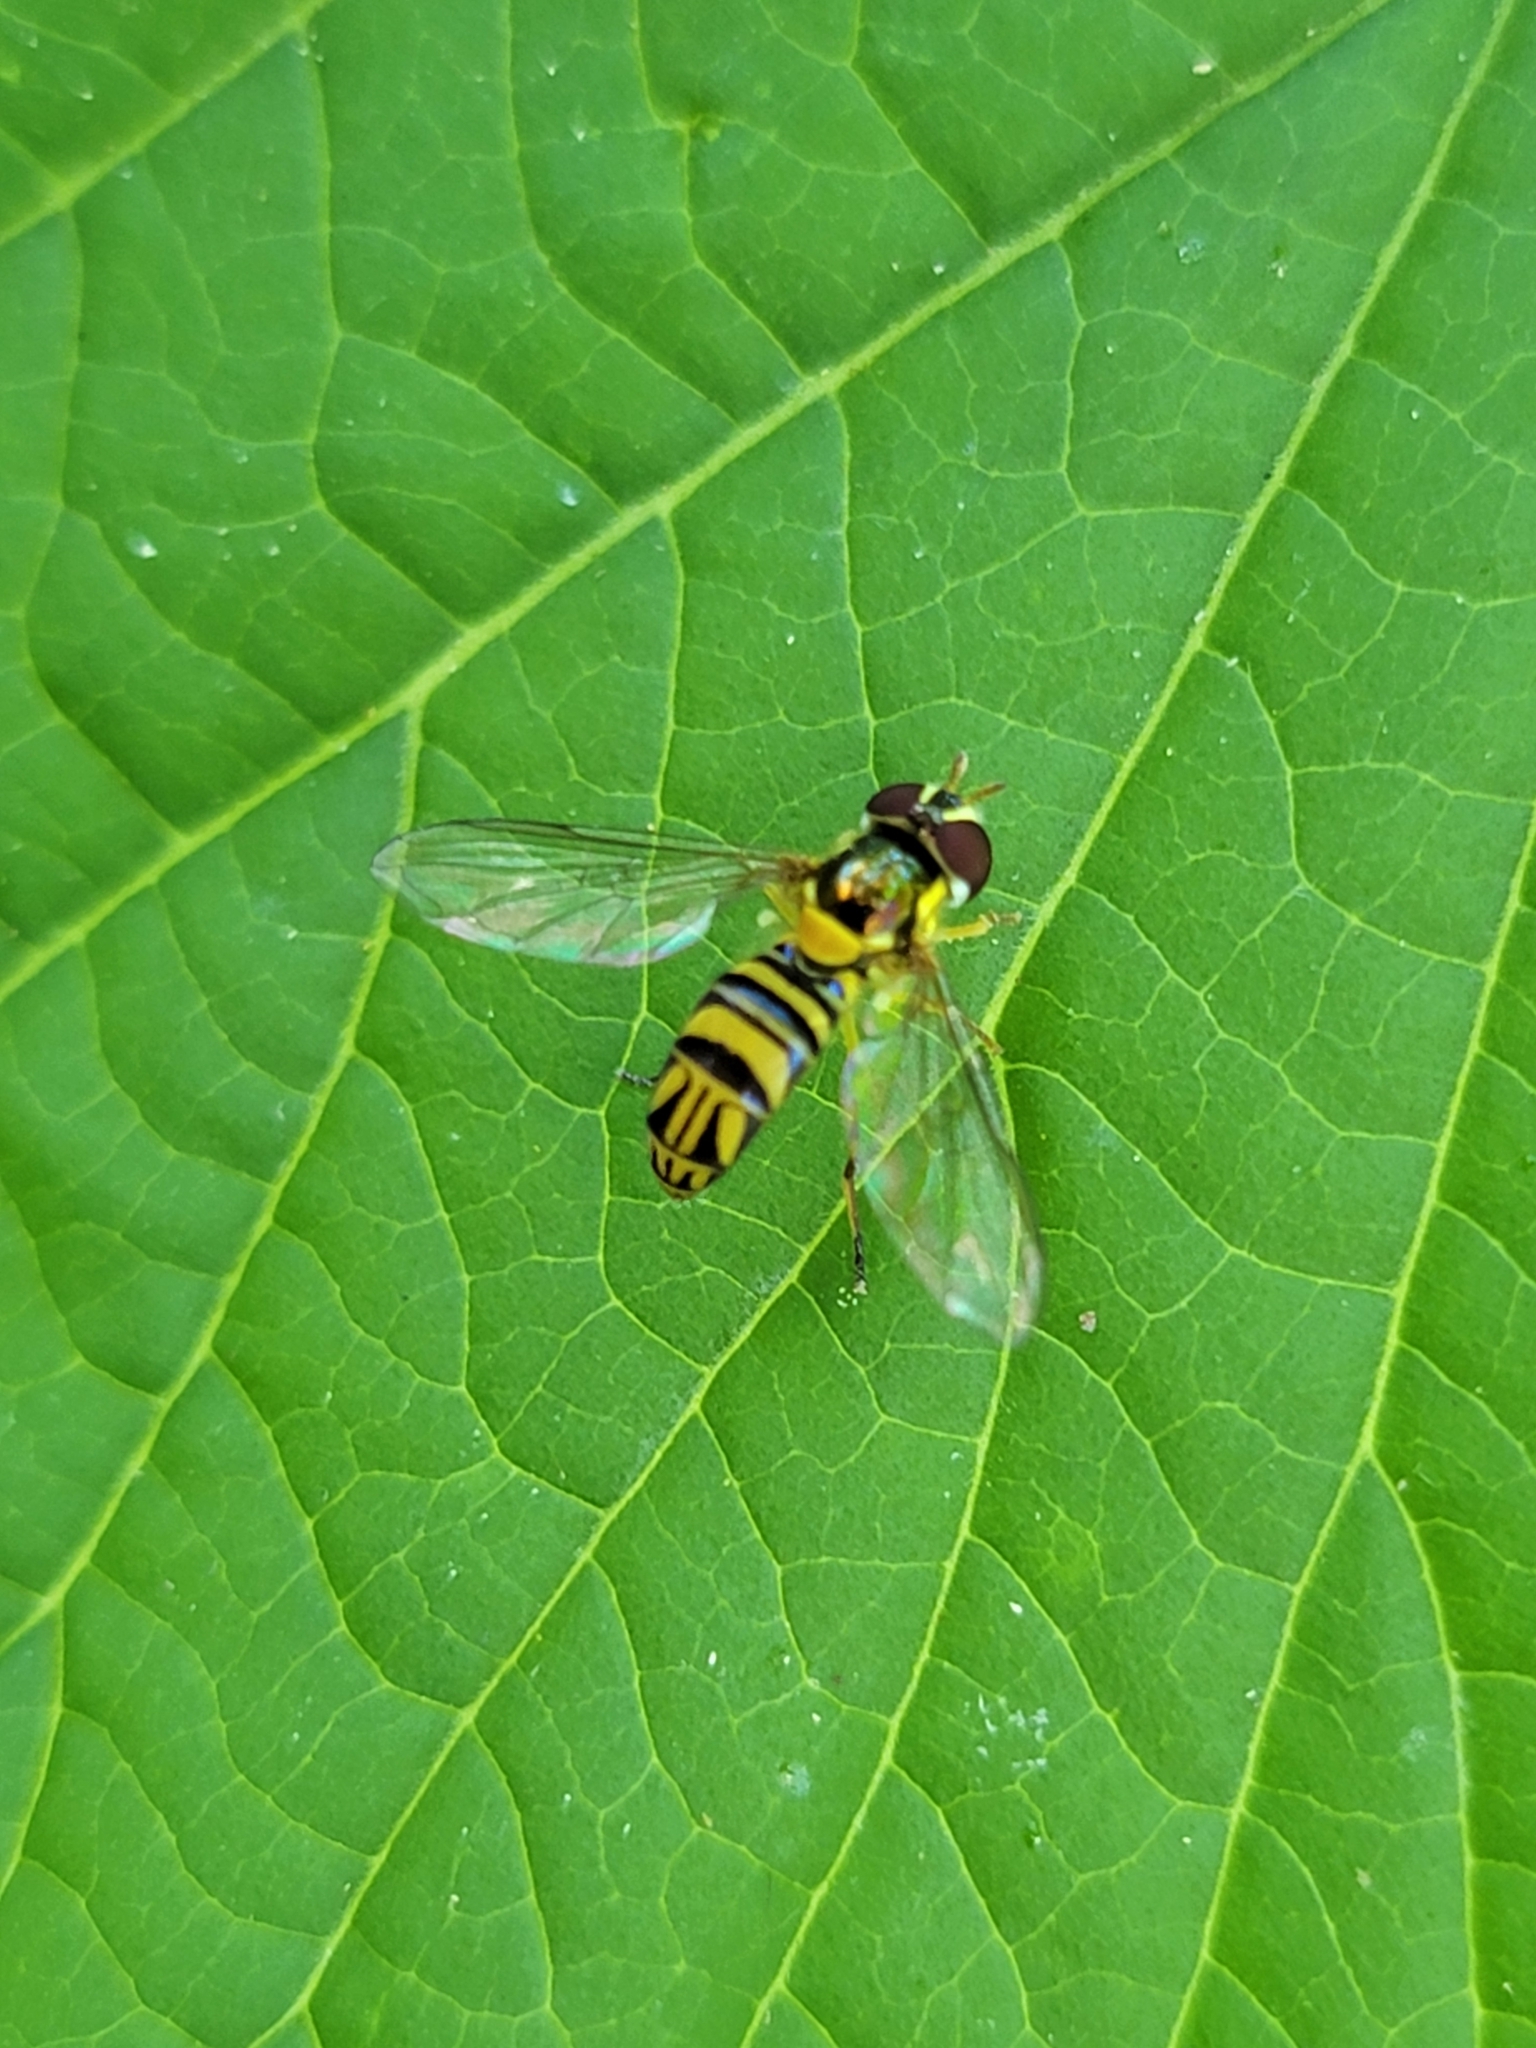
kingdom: Animalia
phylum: Arthropoda
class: Insecta
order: Diptera
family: Syrphidae
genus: Allograpta
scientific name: Allograpta obliqua
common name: Common oblique syrphid
